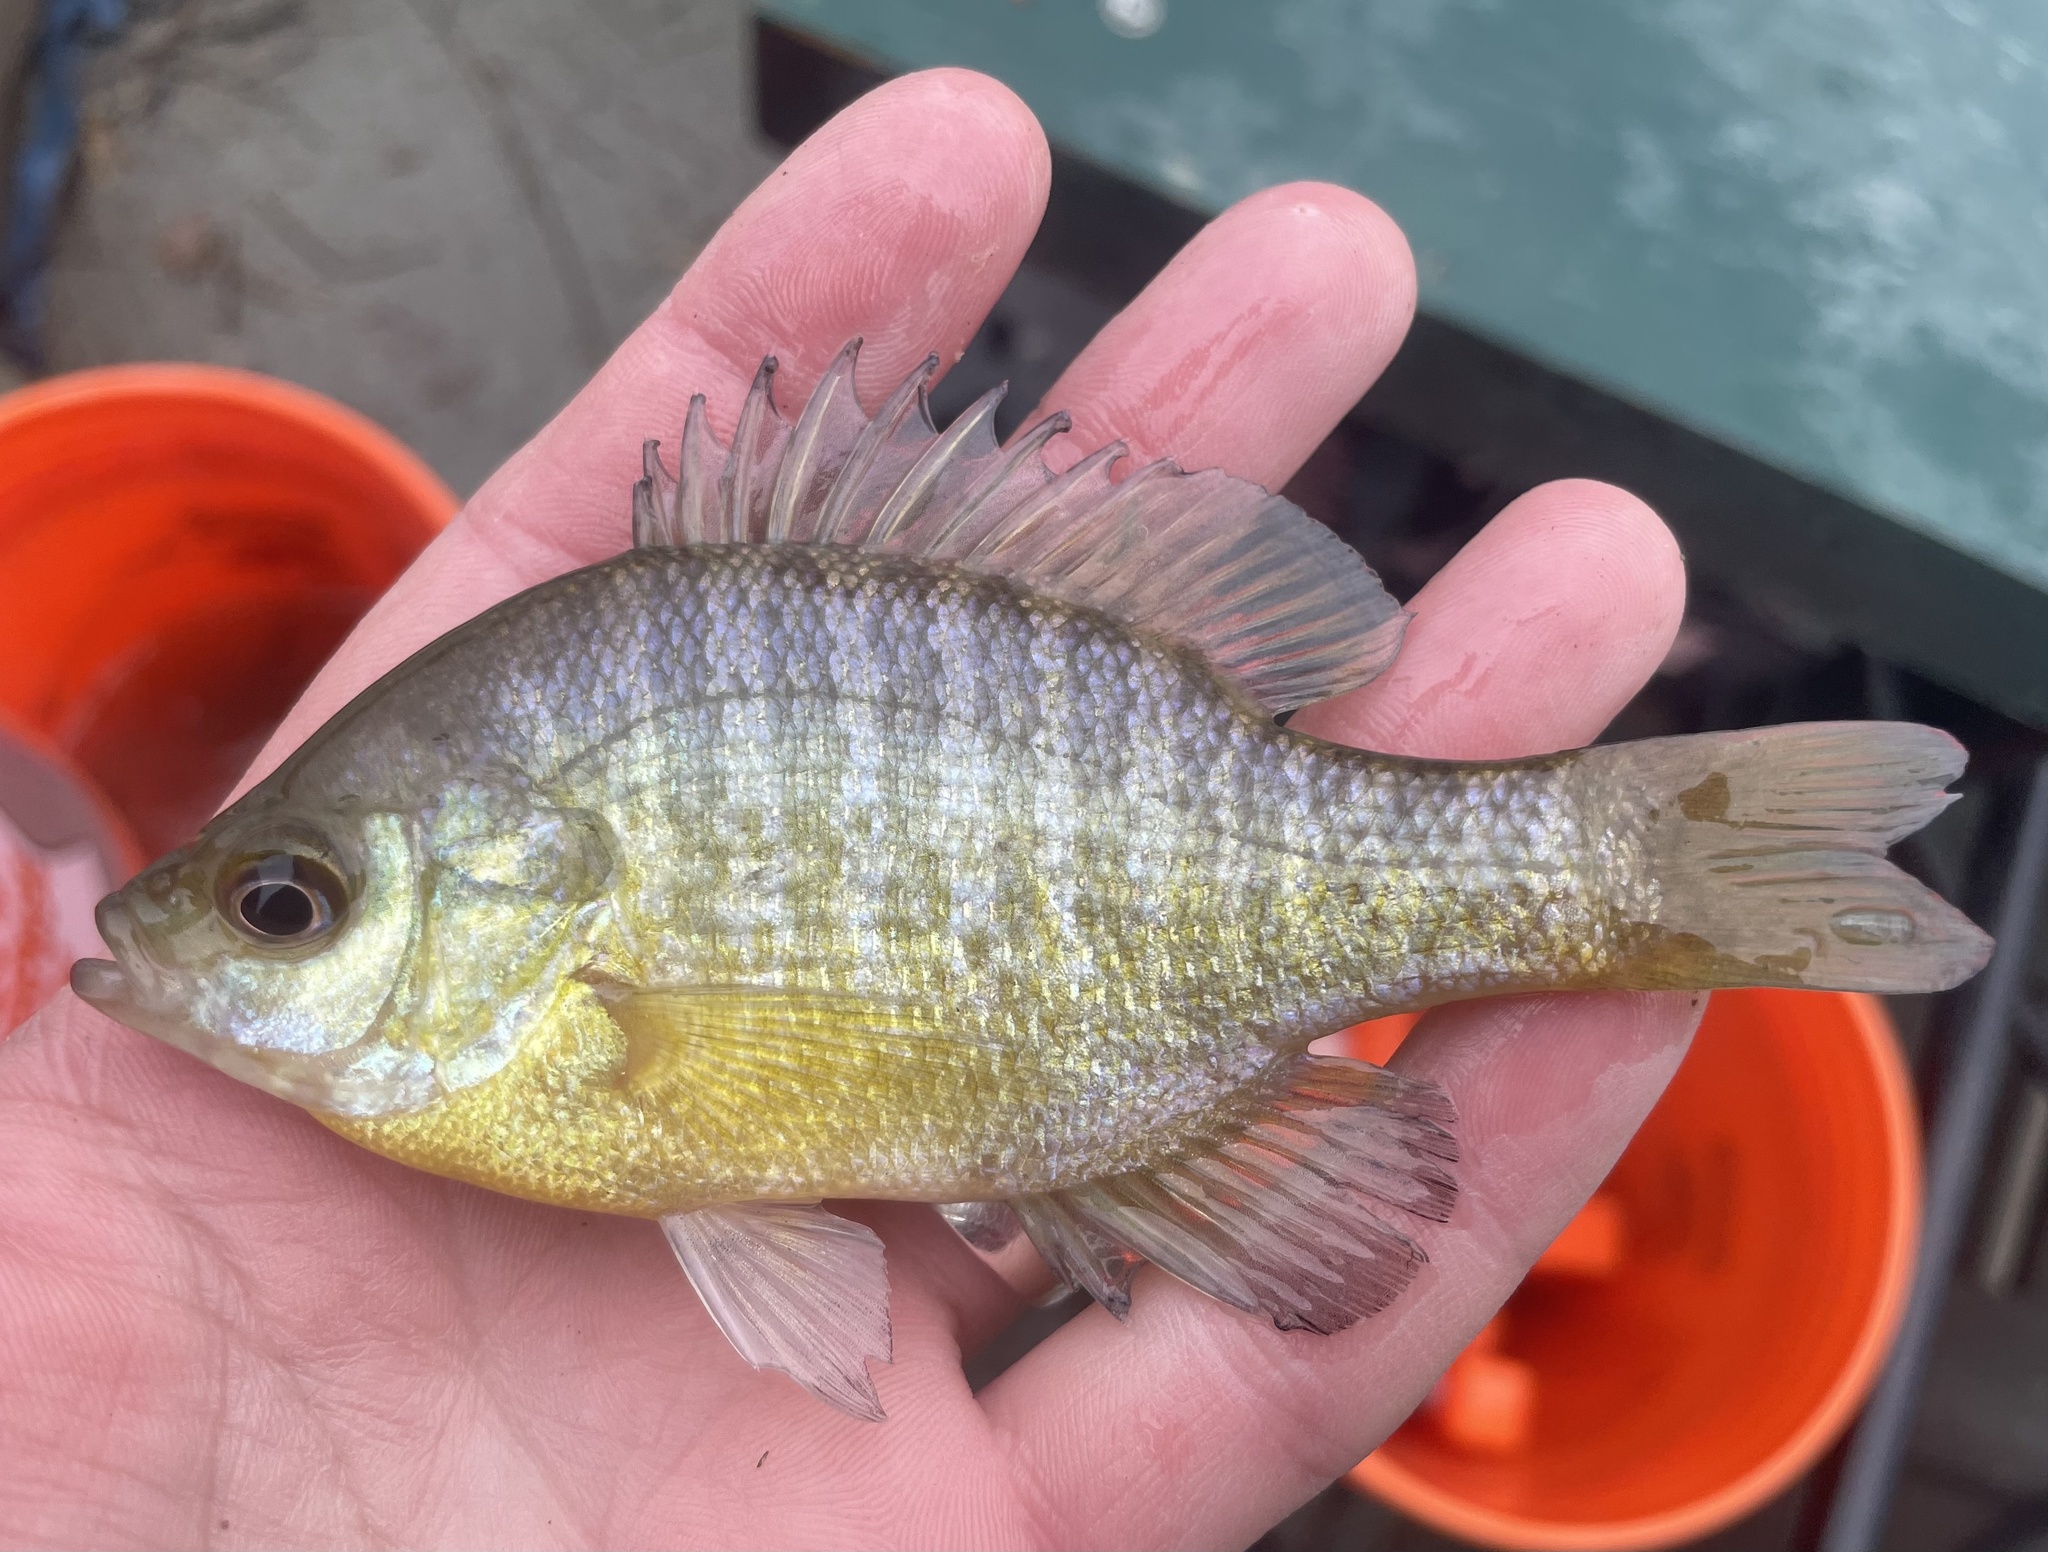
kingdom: Animalia
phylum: Chordata
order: Perciformes
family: Centrarchidae
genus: Lepomis
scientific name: Lepomis macrochirus
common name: Bluegill
